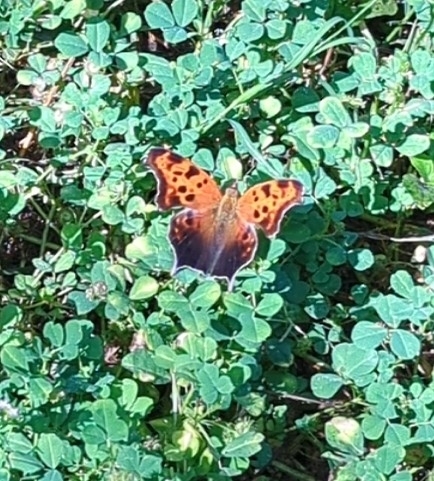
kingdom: Animalia
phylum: Arthropoda
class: Insecta
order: Lepidoptera
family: Nymphalidae
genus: Polygonia
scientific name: Polygonia comma
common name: Eastern comma
